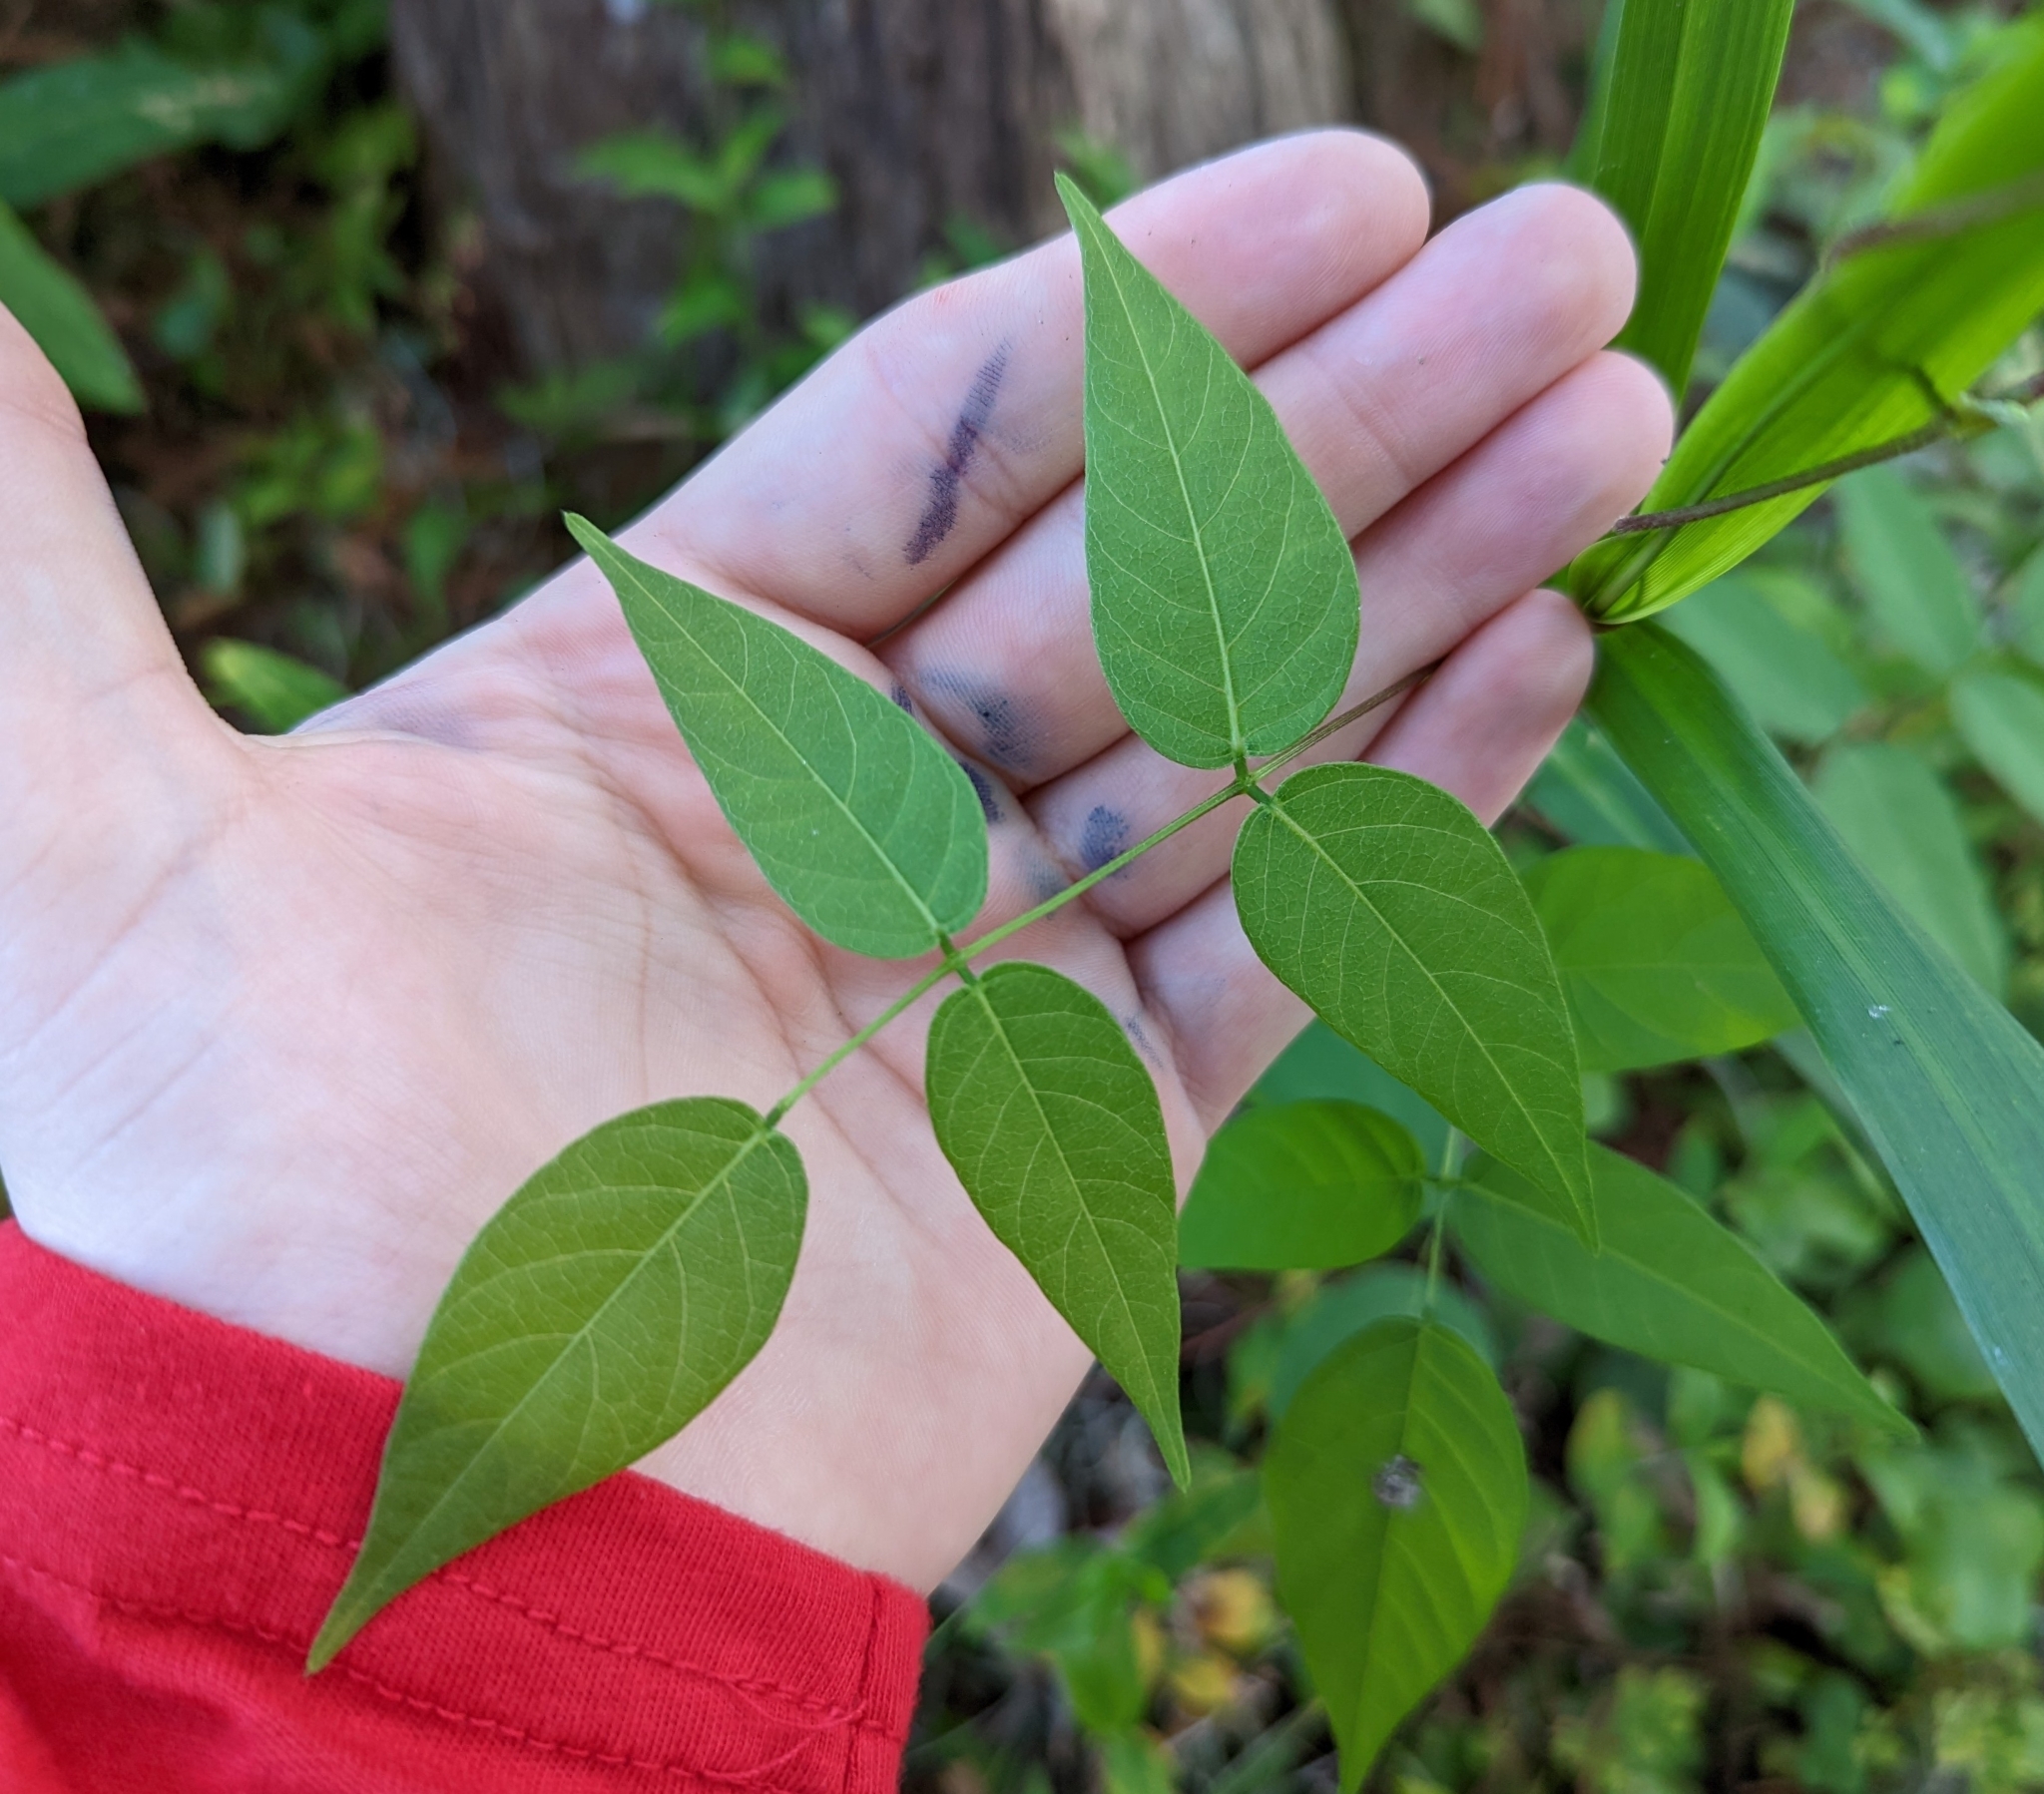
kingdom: Plantae
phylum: Tracheophyta
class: Magnoliopsida
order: Fabales
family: Fabaceae
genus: Apios
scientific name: Apios americana
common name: American potato-bean
